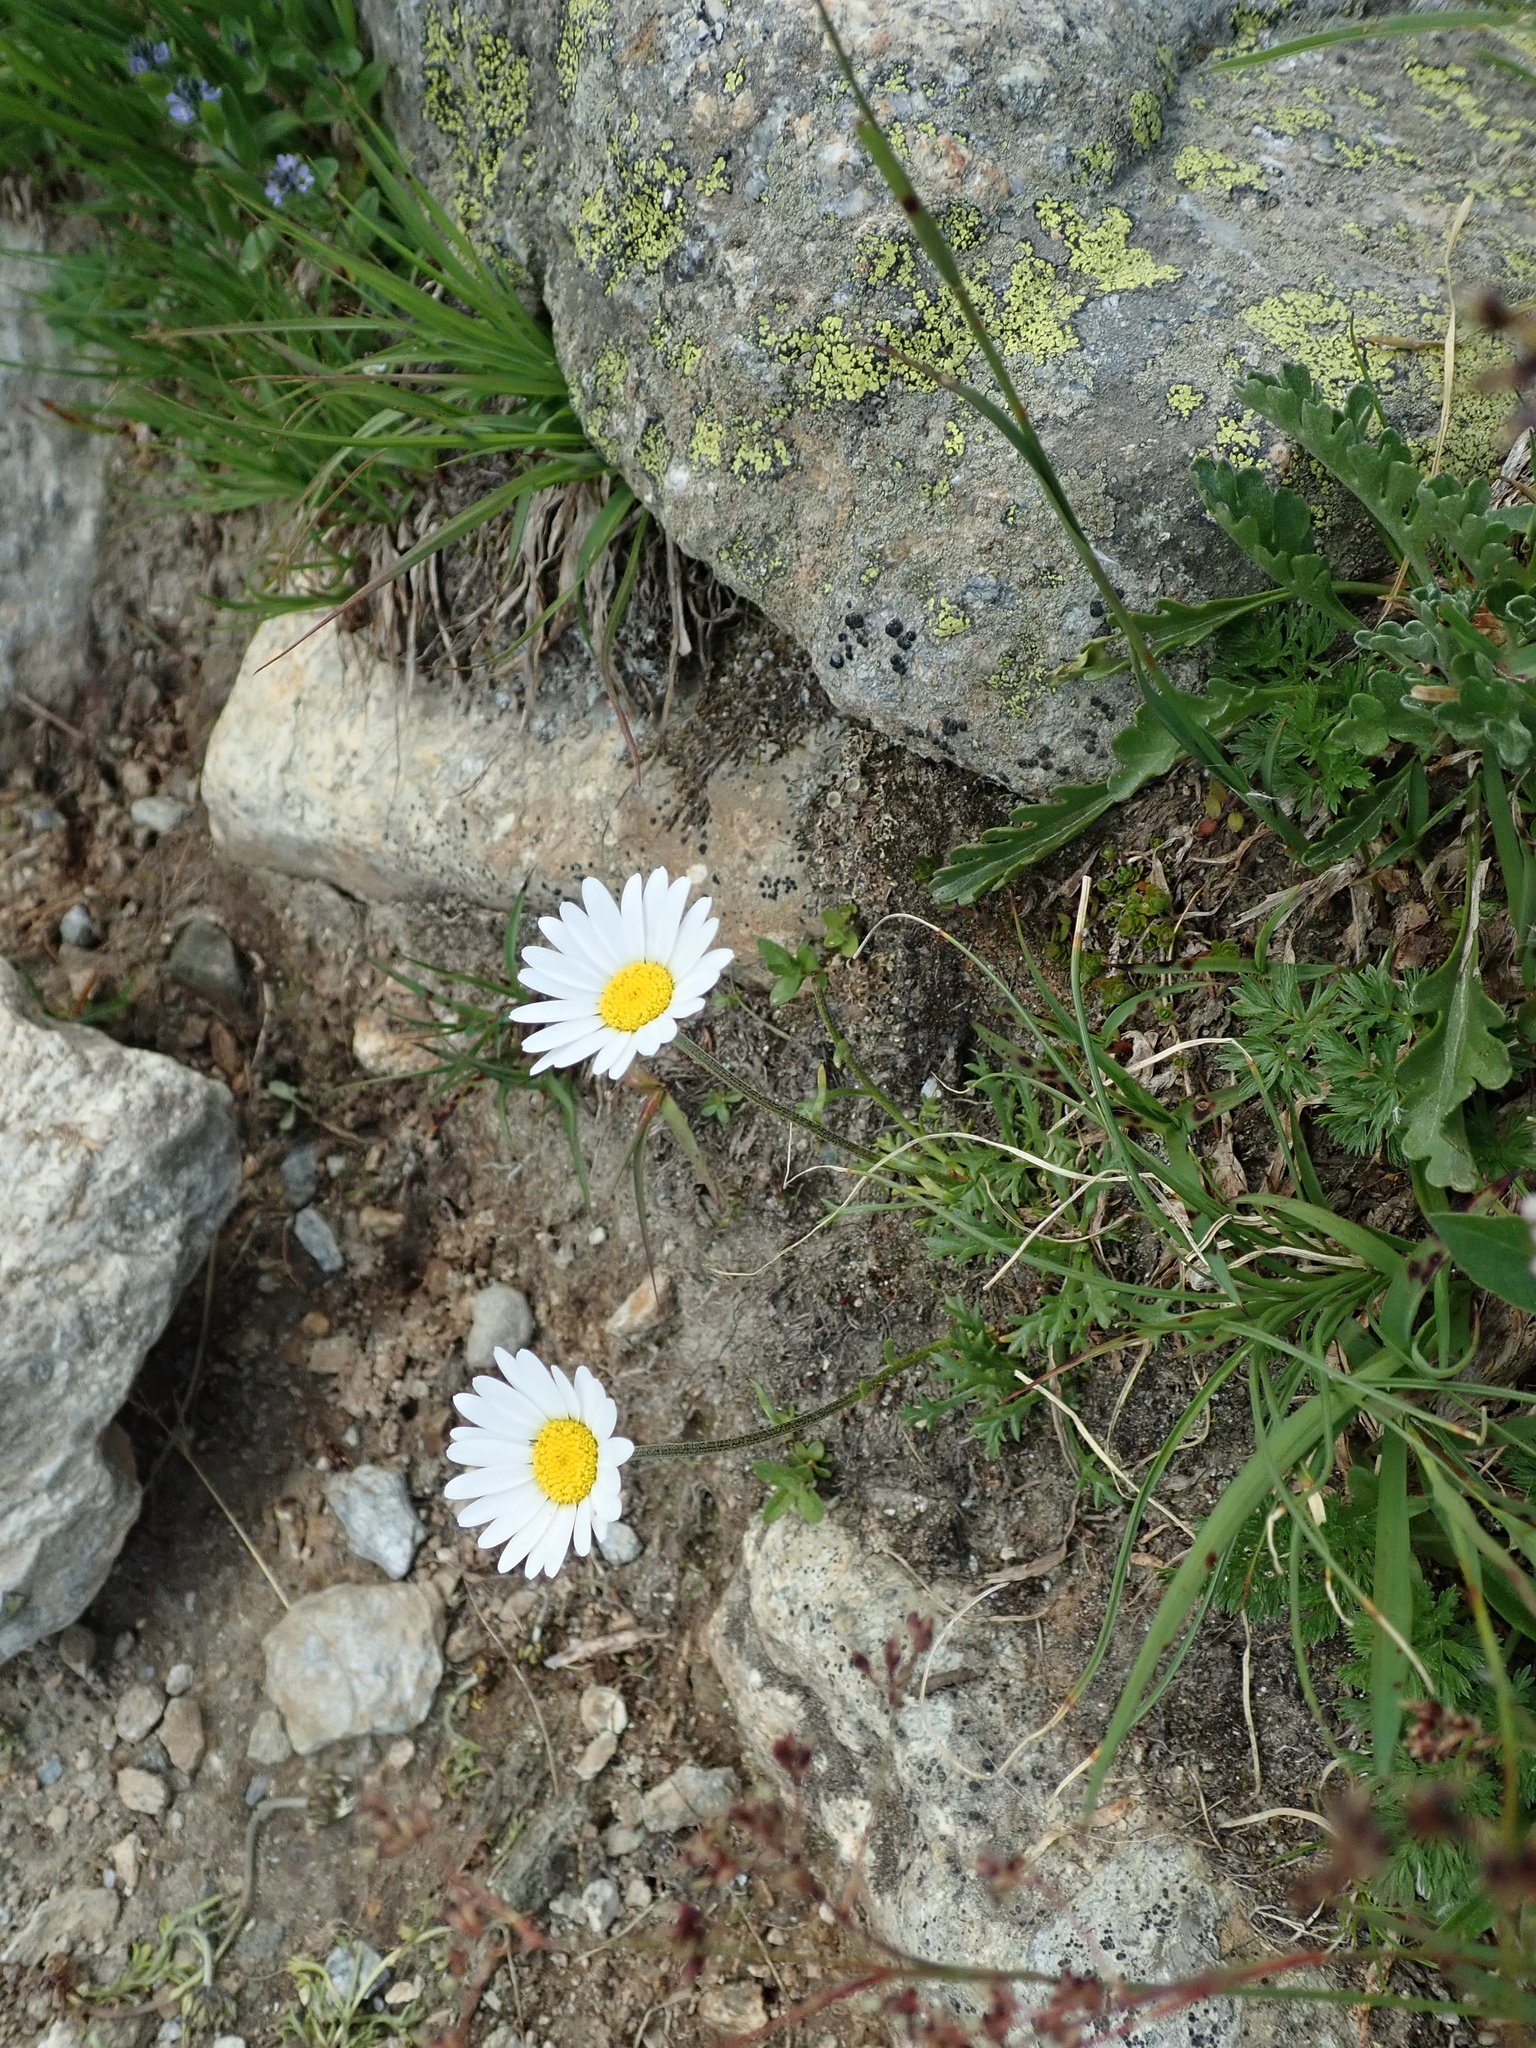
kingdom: Plantae
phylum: Tracheophyta
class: Magnoliopsida
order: Asterales
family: Asteraceae
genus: Leucanthemopsis
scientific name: Leucanthemopsis alpina
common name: Alpine moon daisy
